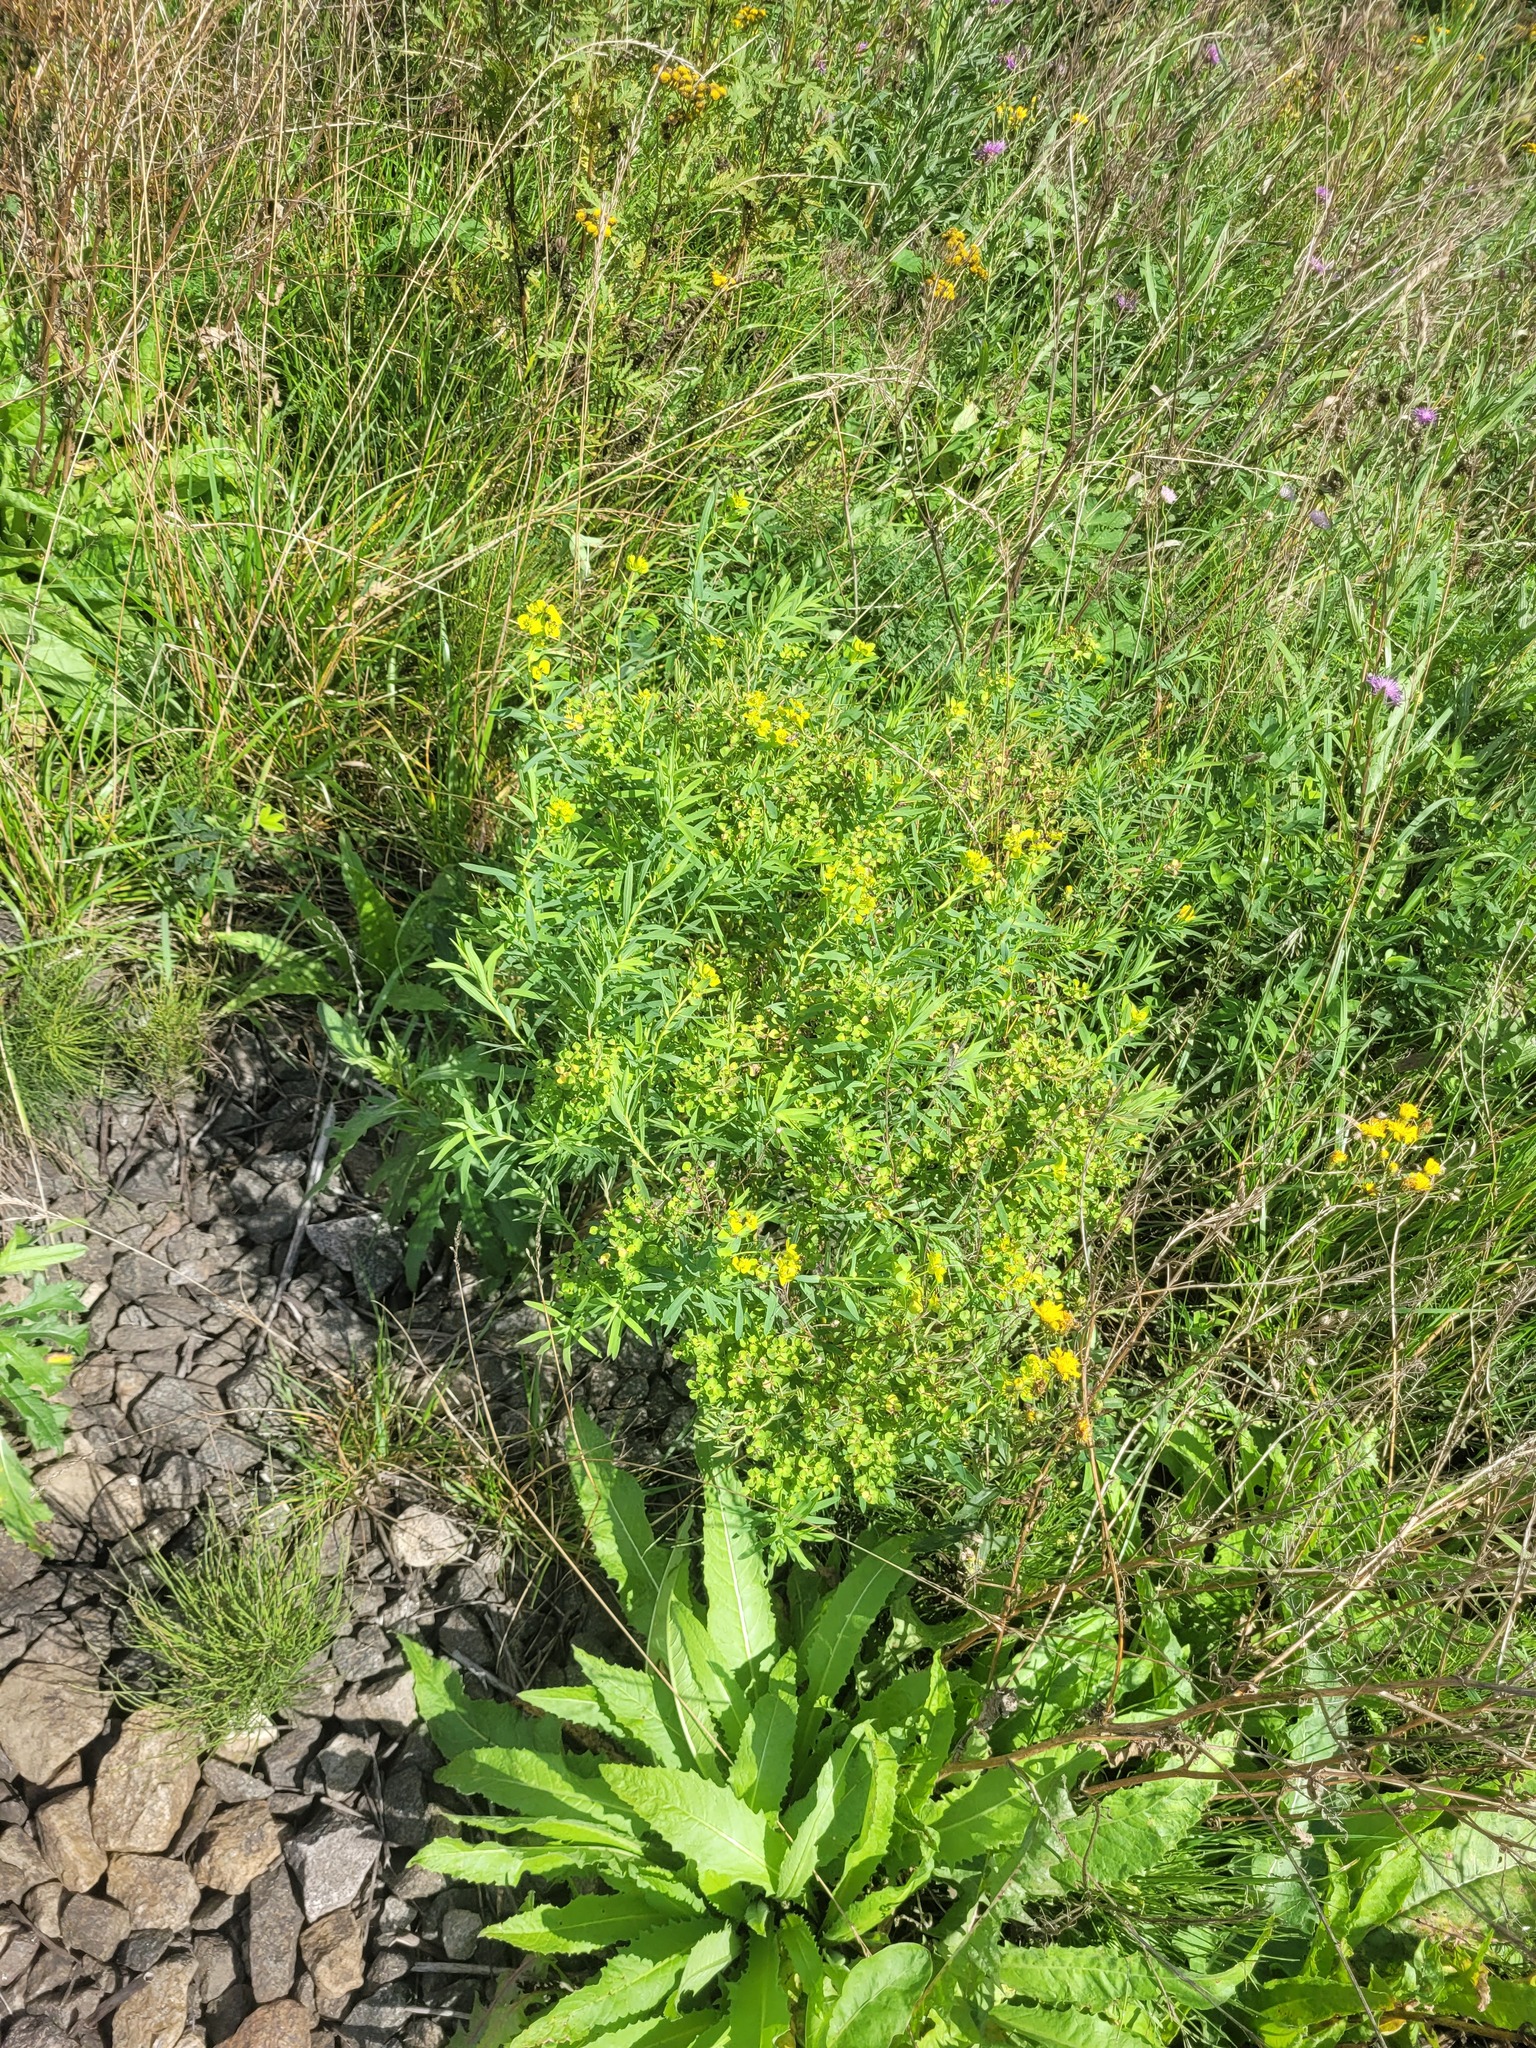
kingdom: Plantae
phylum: Tracheophyta
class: Magnoliopsida
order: Malpighiales
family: Euphorbiaceae
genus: Euphorbia
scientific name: Euphorbia virgata
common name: Leafy spurge
